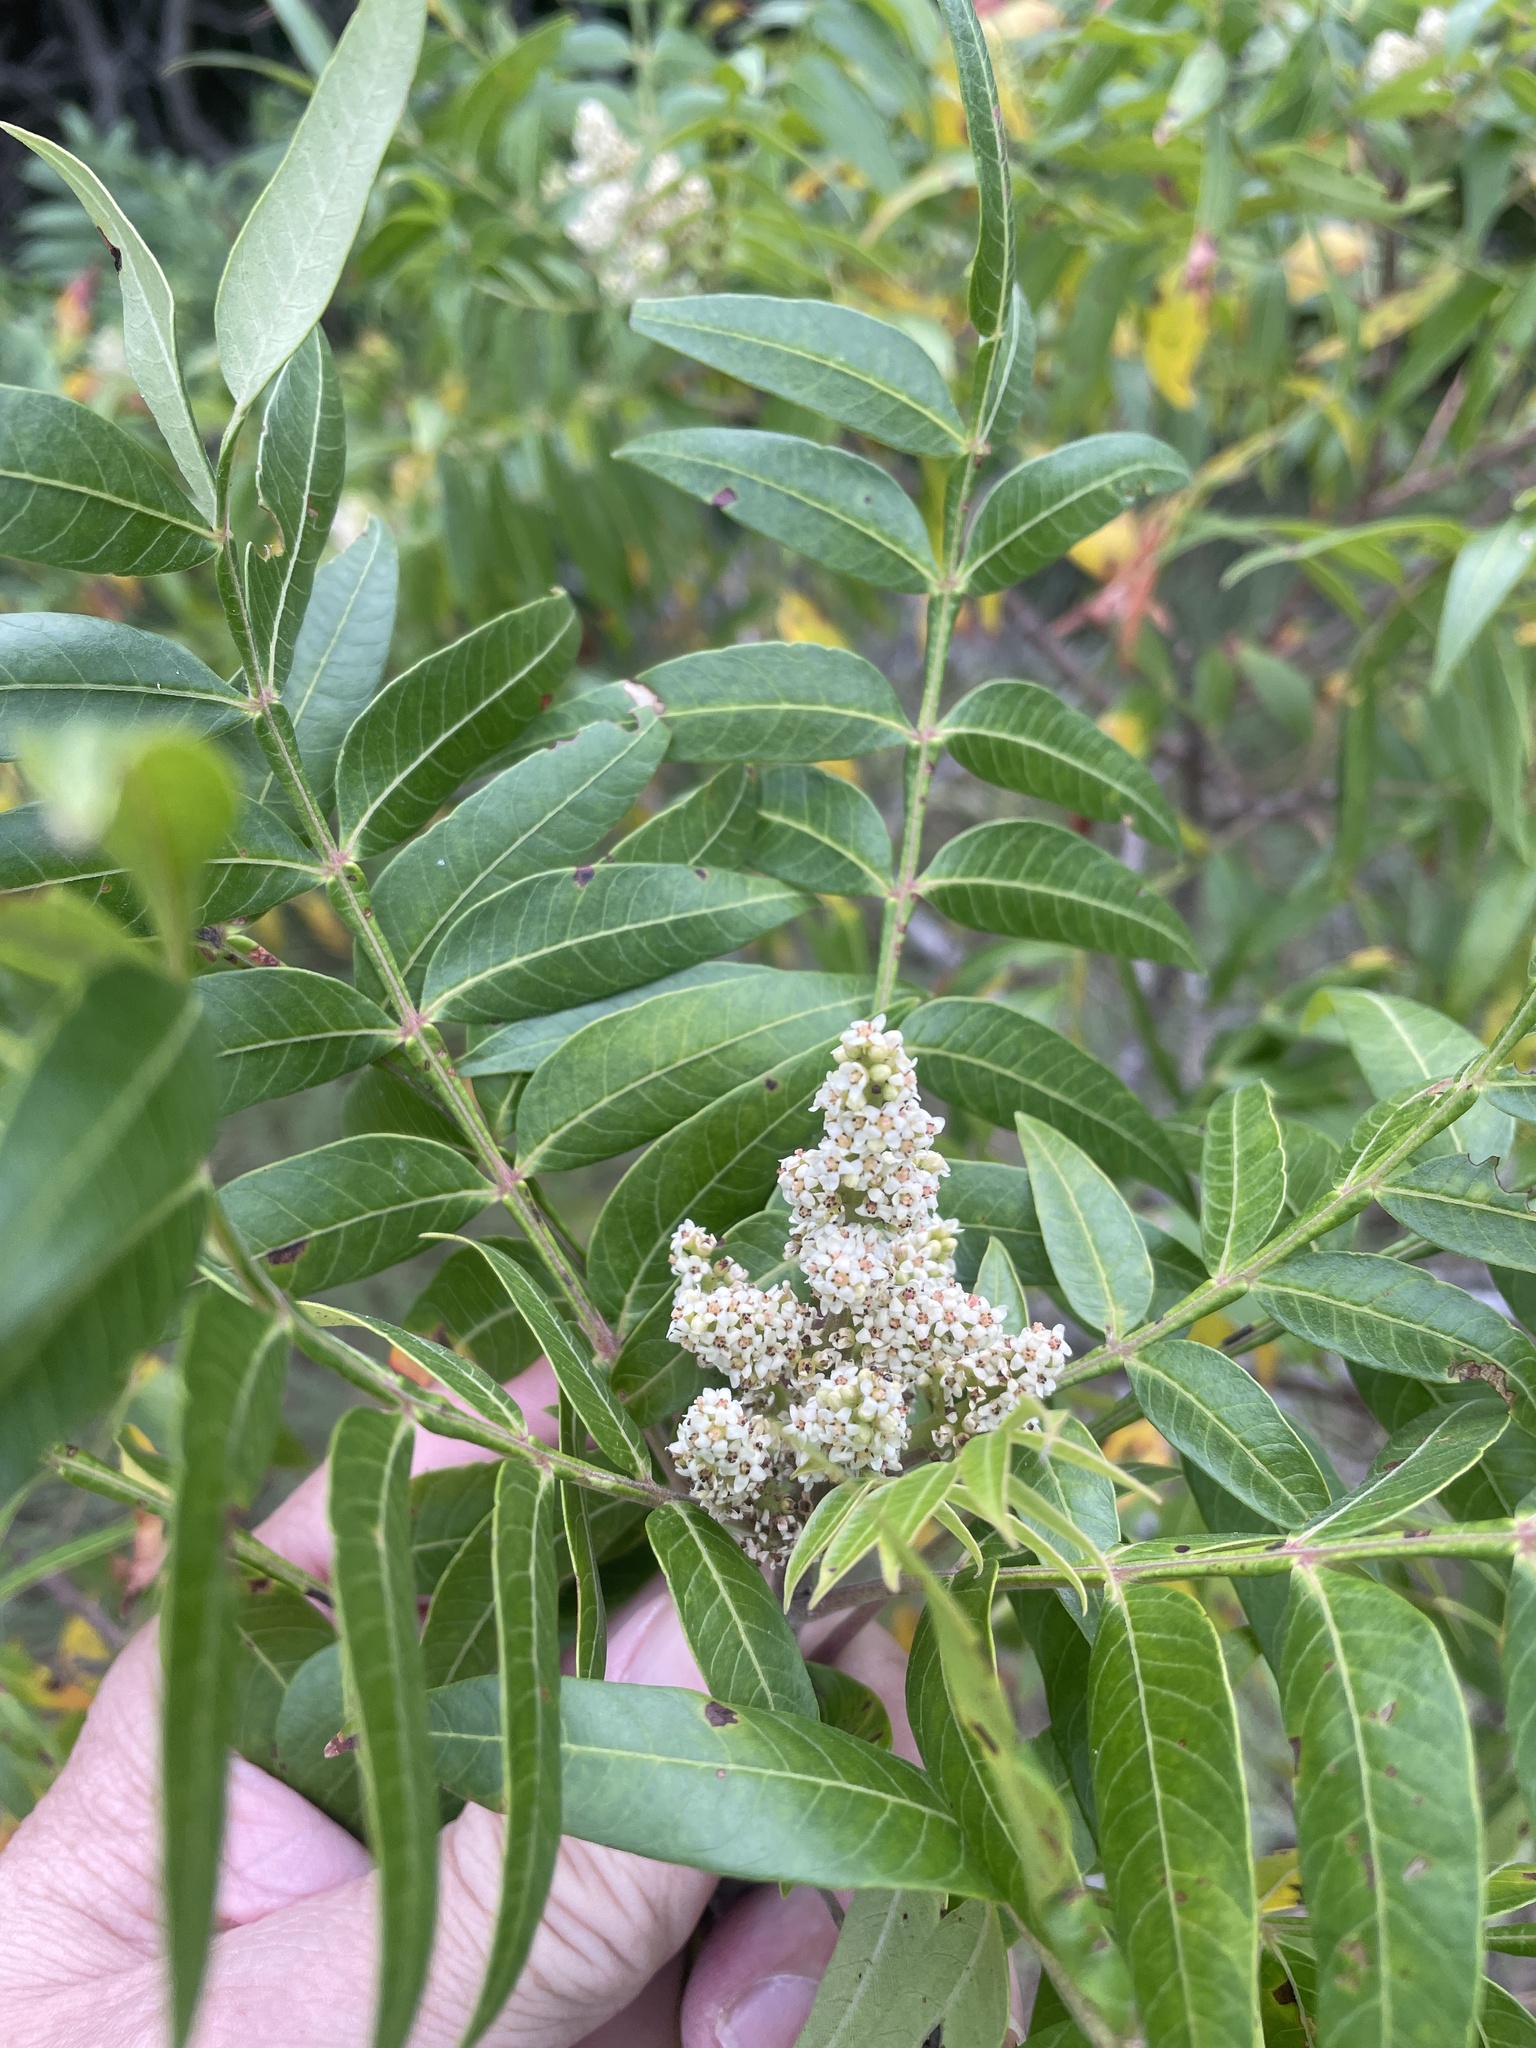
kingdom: Plantae
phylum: Tracheophyta
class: Magnoliopsida
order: Sapindales
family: Anacardiaceae
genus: Rhus
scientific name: Rhus lanceolata
